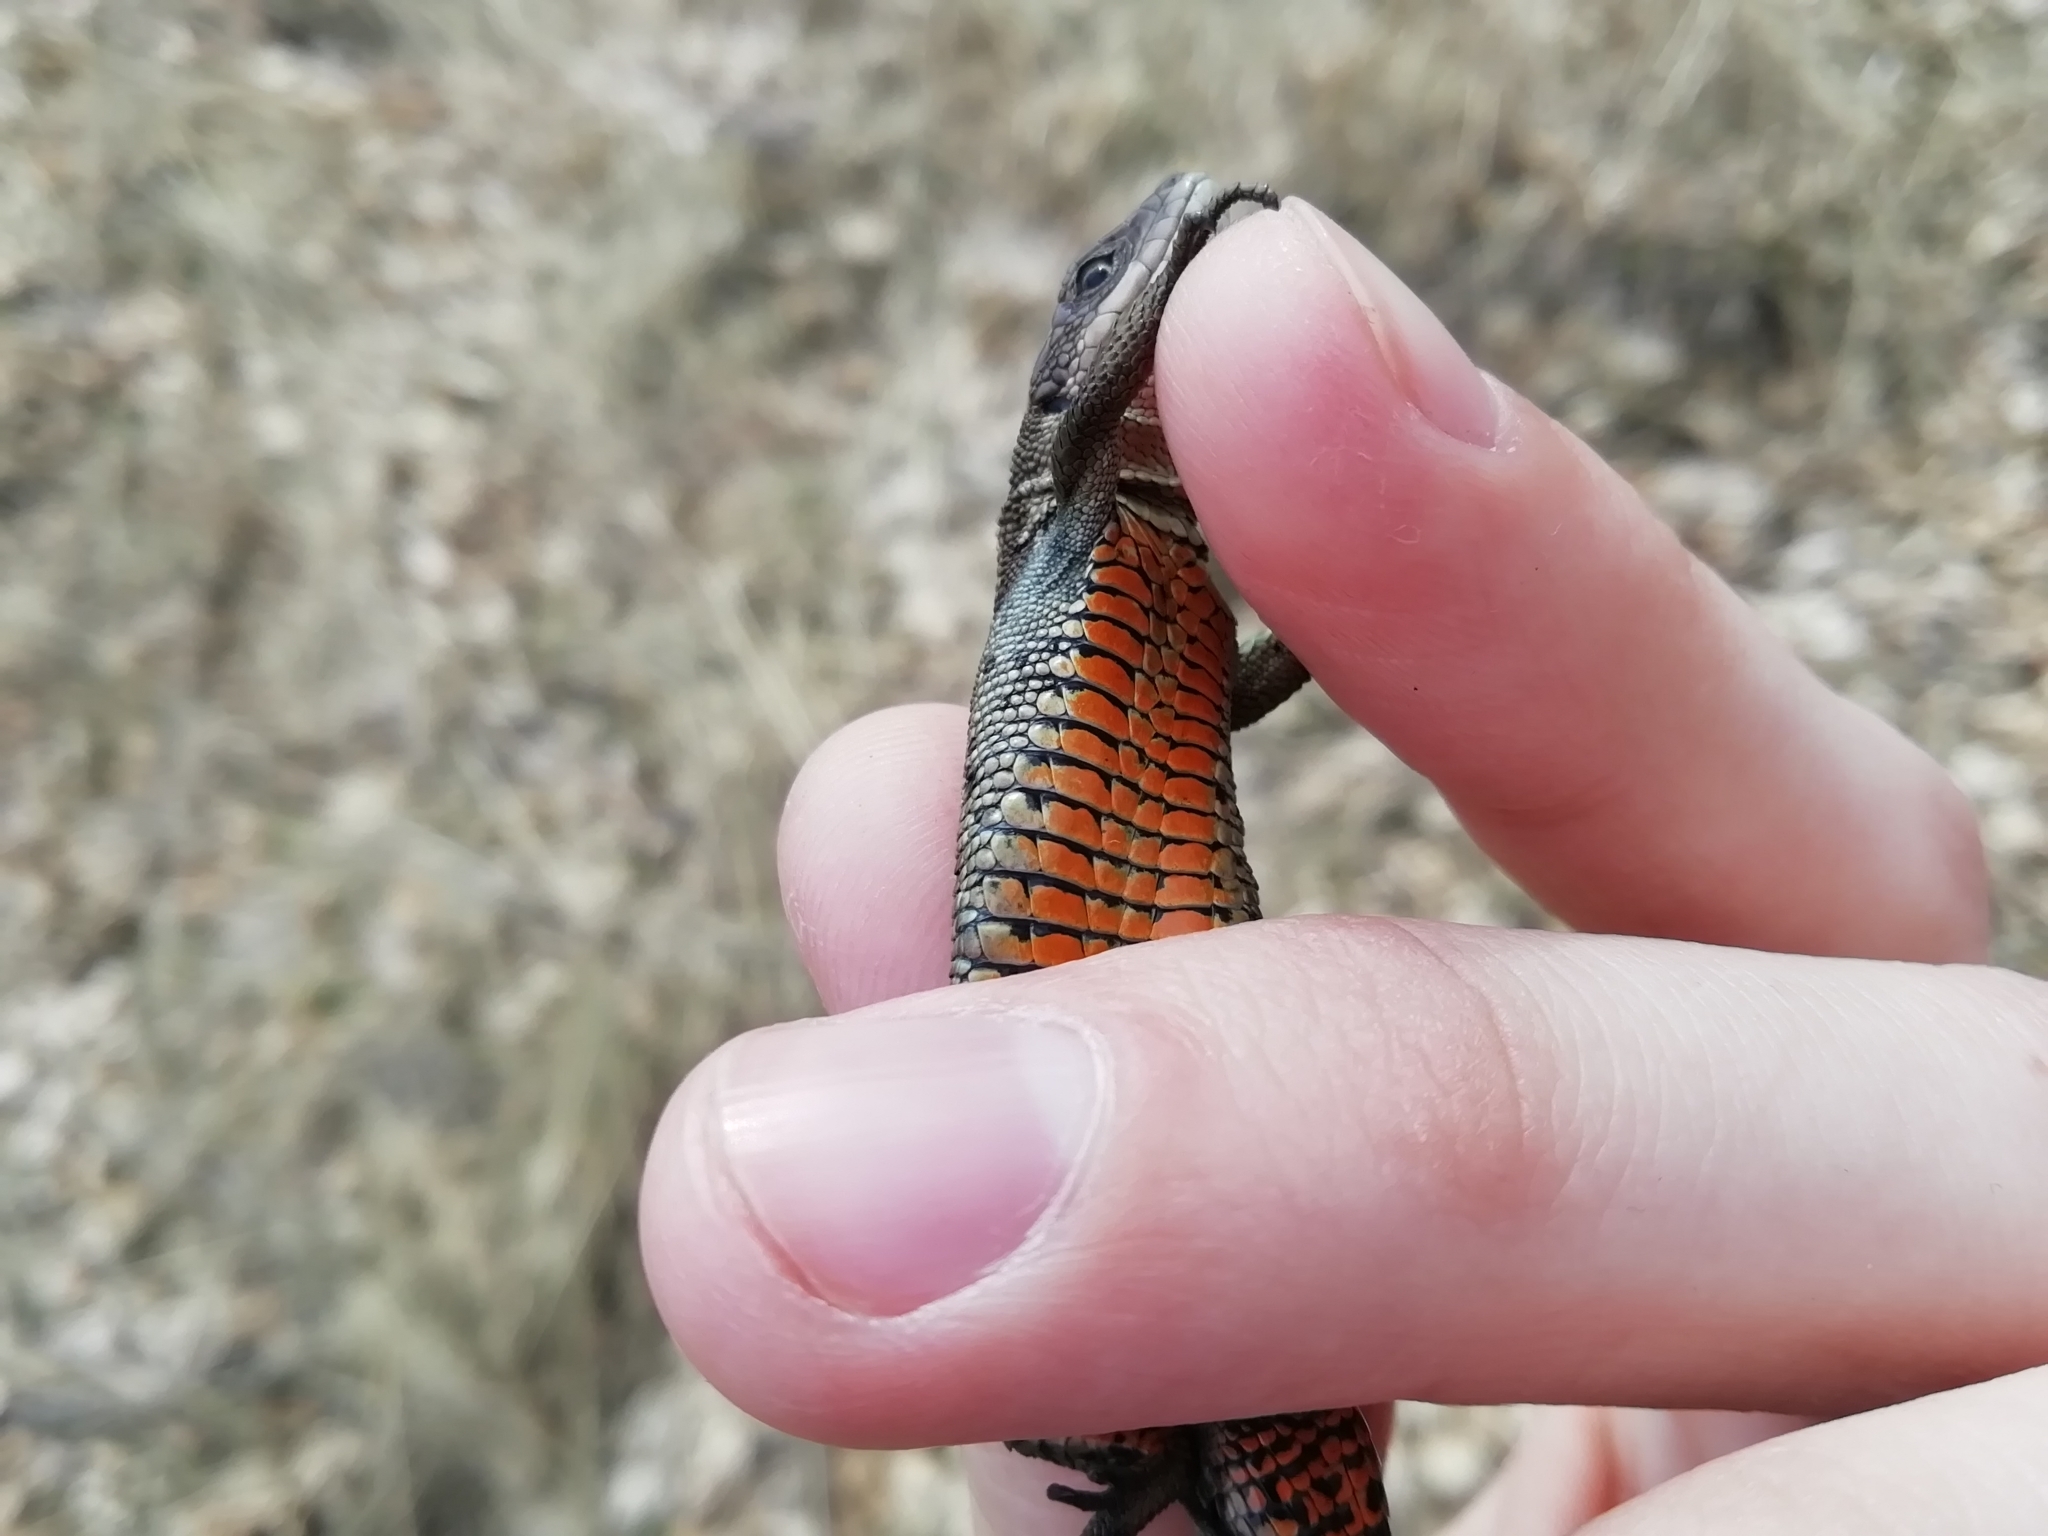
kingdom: Animalia
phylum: Chordata
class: Squamata
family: Lacertidae
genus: Zootoca
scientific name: Zootoca vivipara
